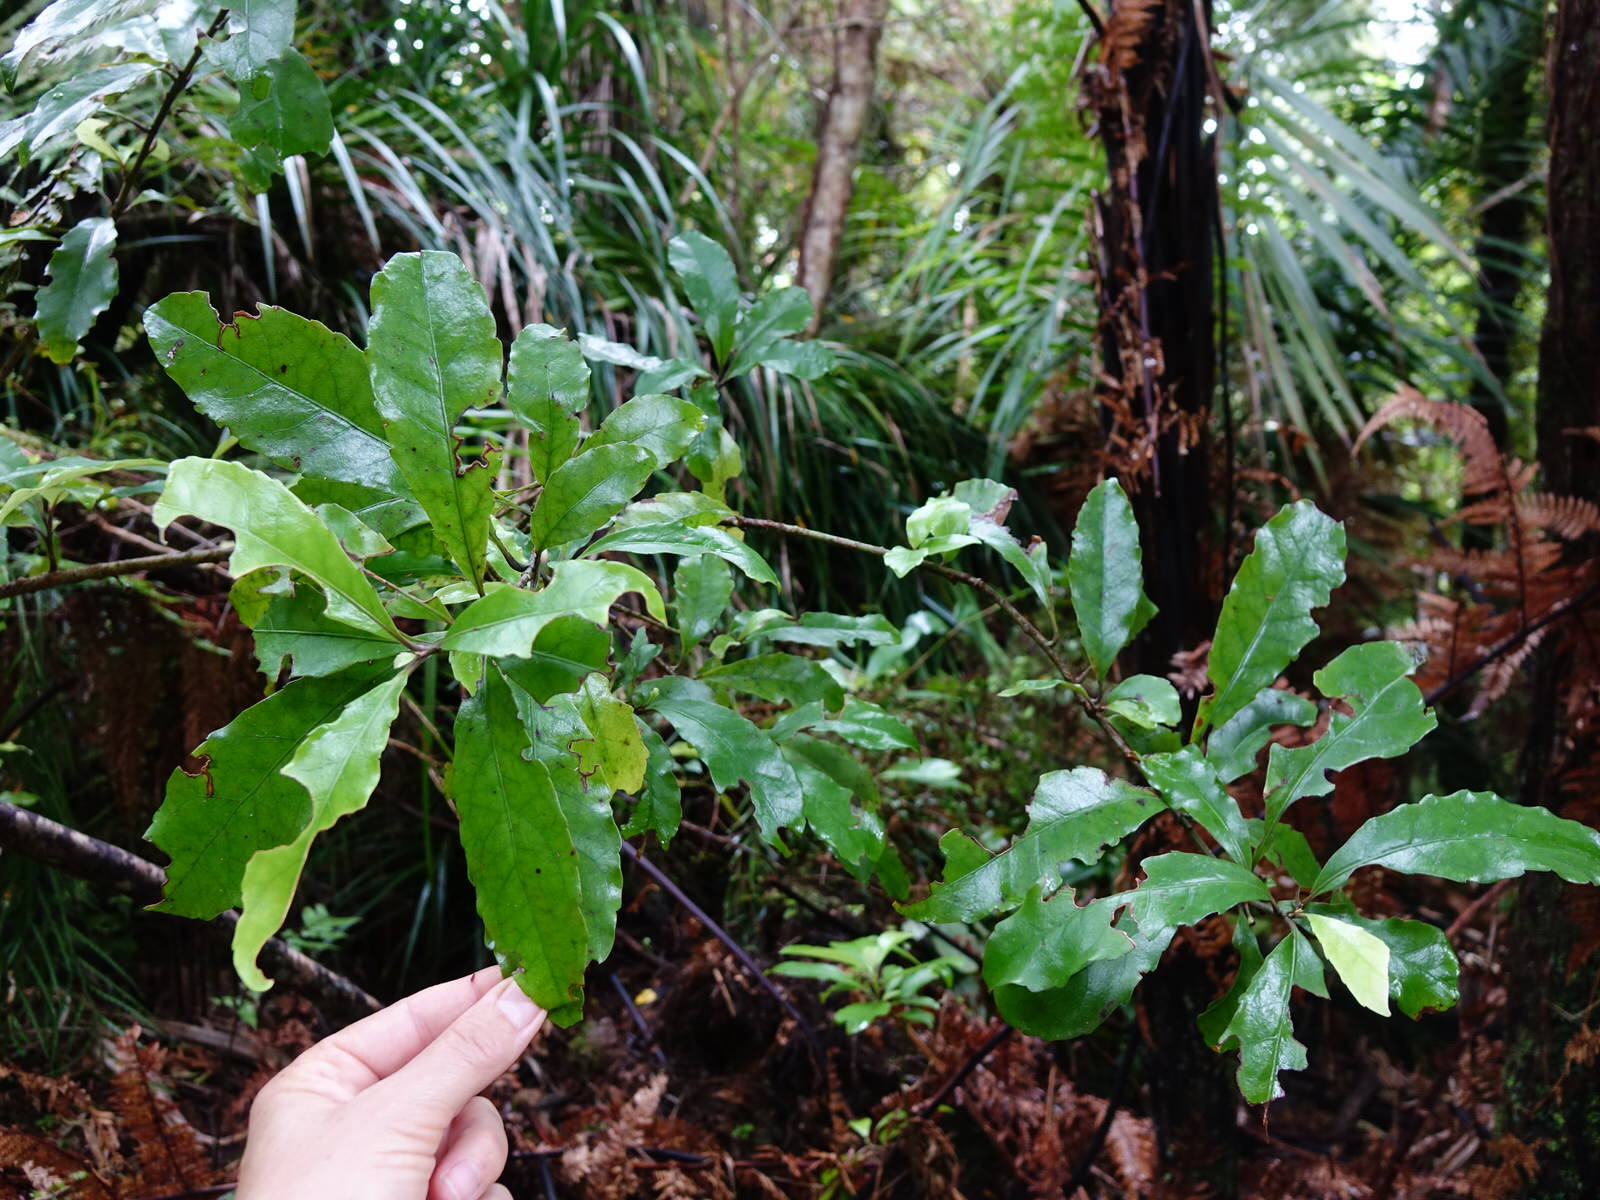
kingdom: Plantae
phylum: Tracheophyta
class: Magnoliopsida
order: Asterales
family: Alseuosmiaceae
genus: Alseuosmia
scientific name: Alseuosmia macrophylla
